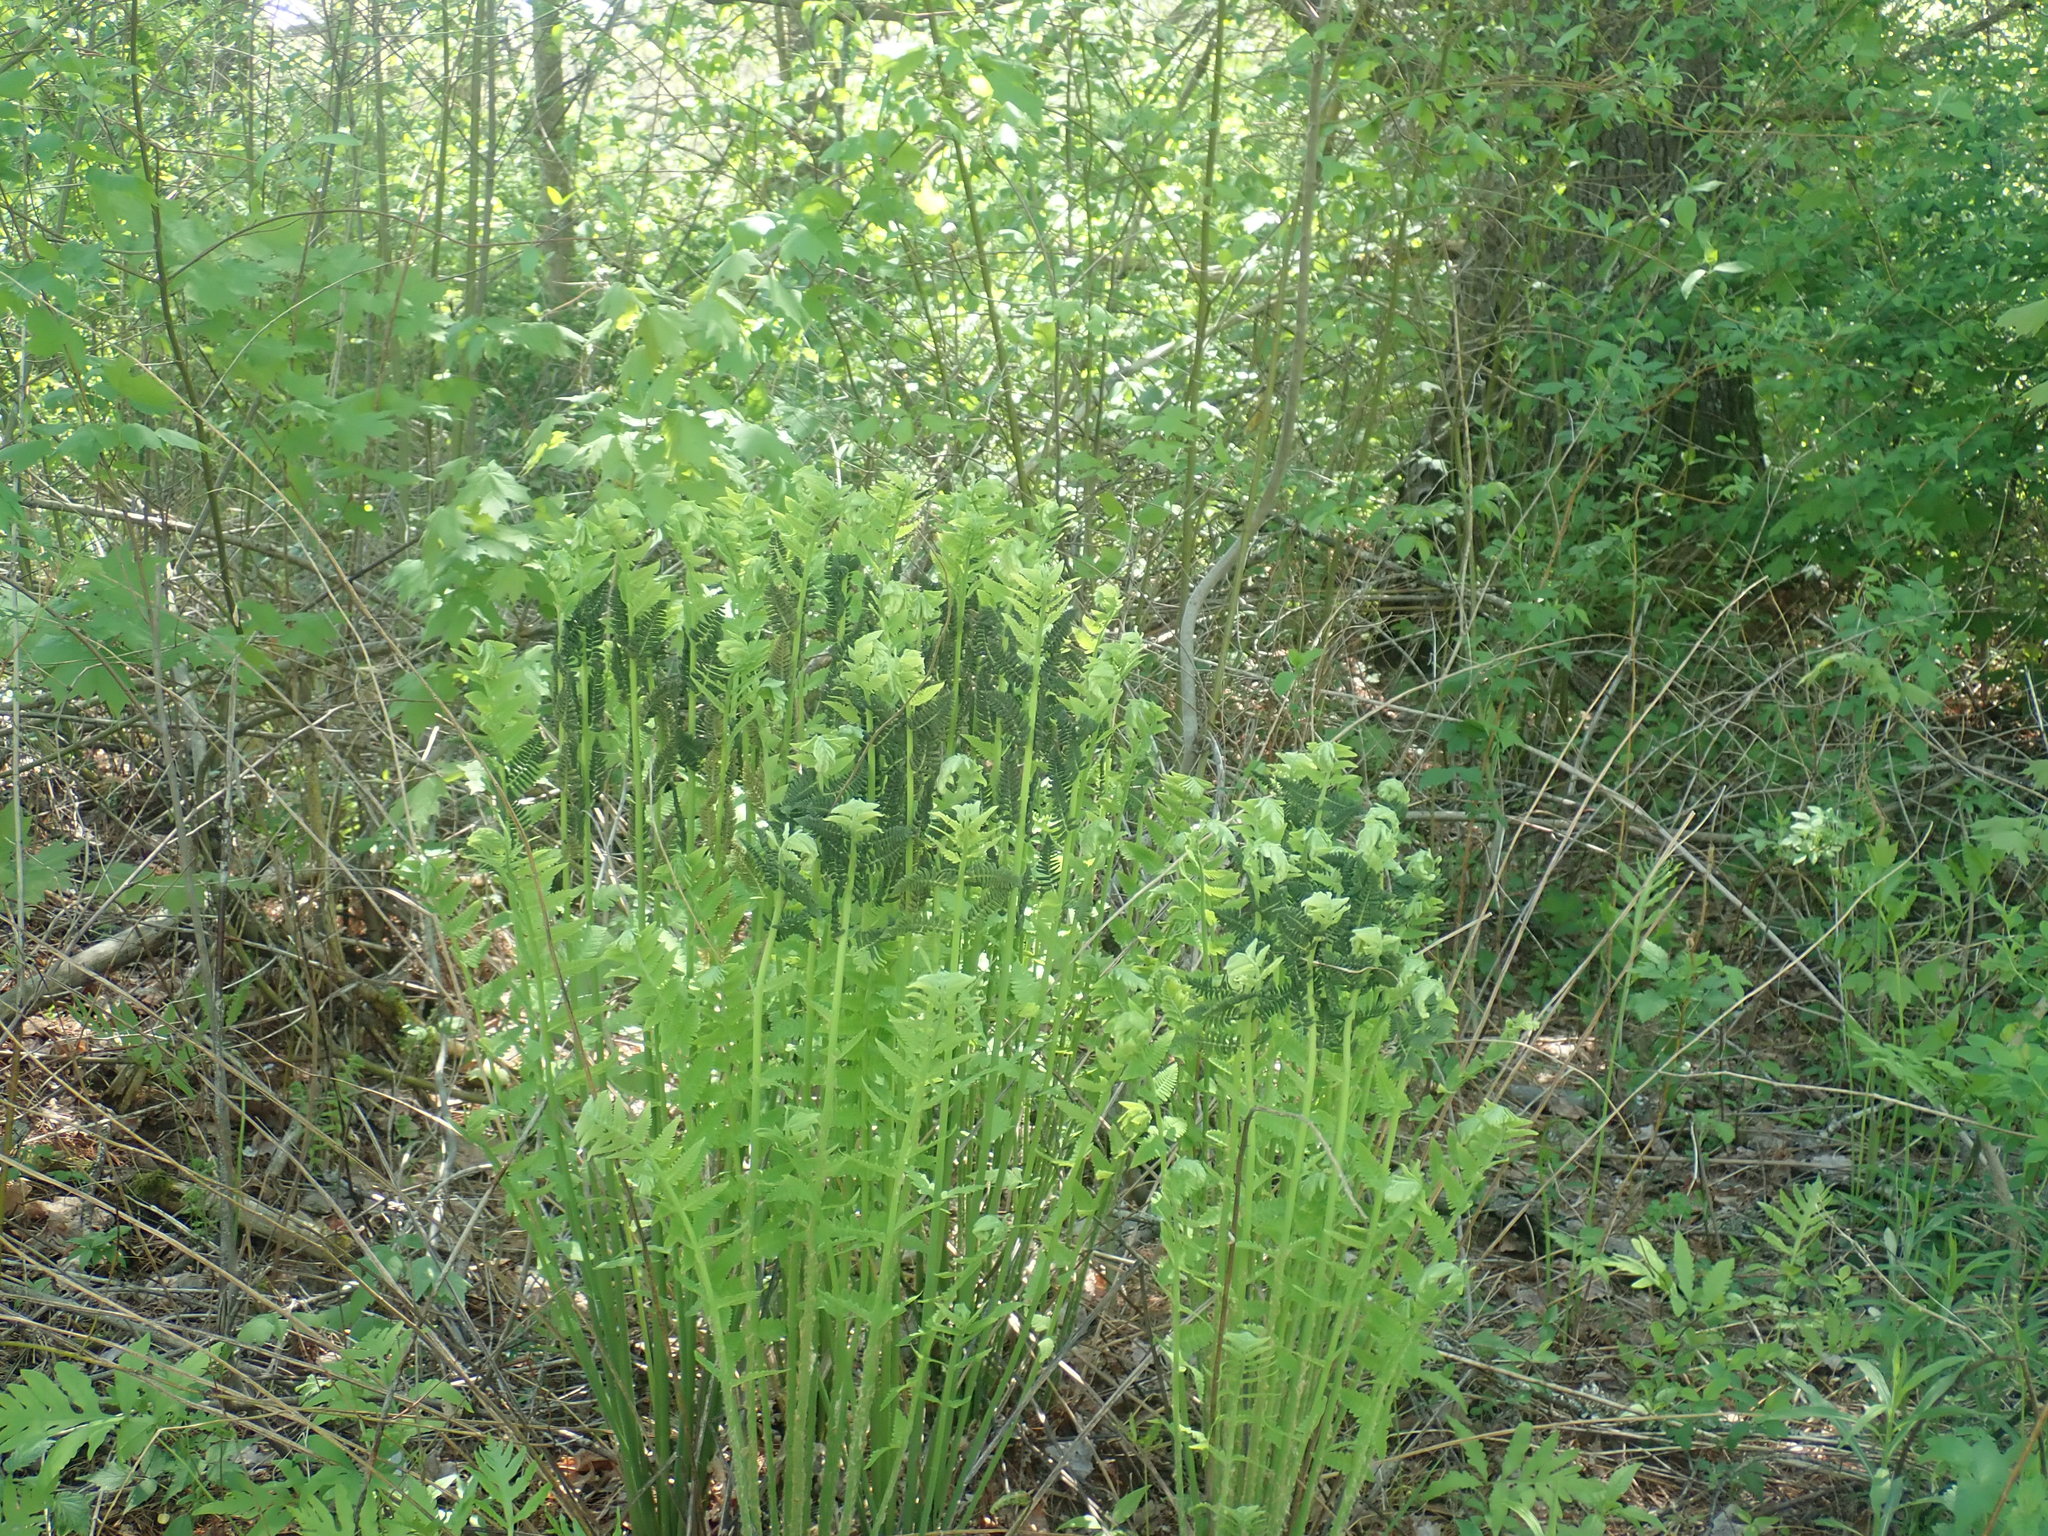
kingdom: Plantae
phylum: Tracheophyta
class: Polypodiopsida
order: Osmundales
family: Osmundaceae
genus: Claytosmunda
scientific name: Claytosmunda claytoniana
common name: Clayton's fern
